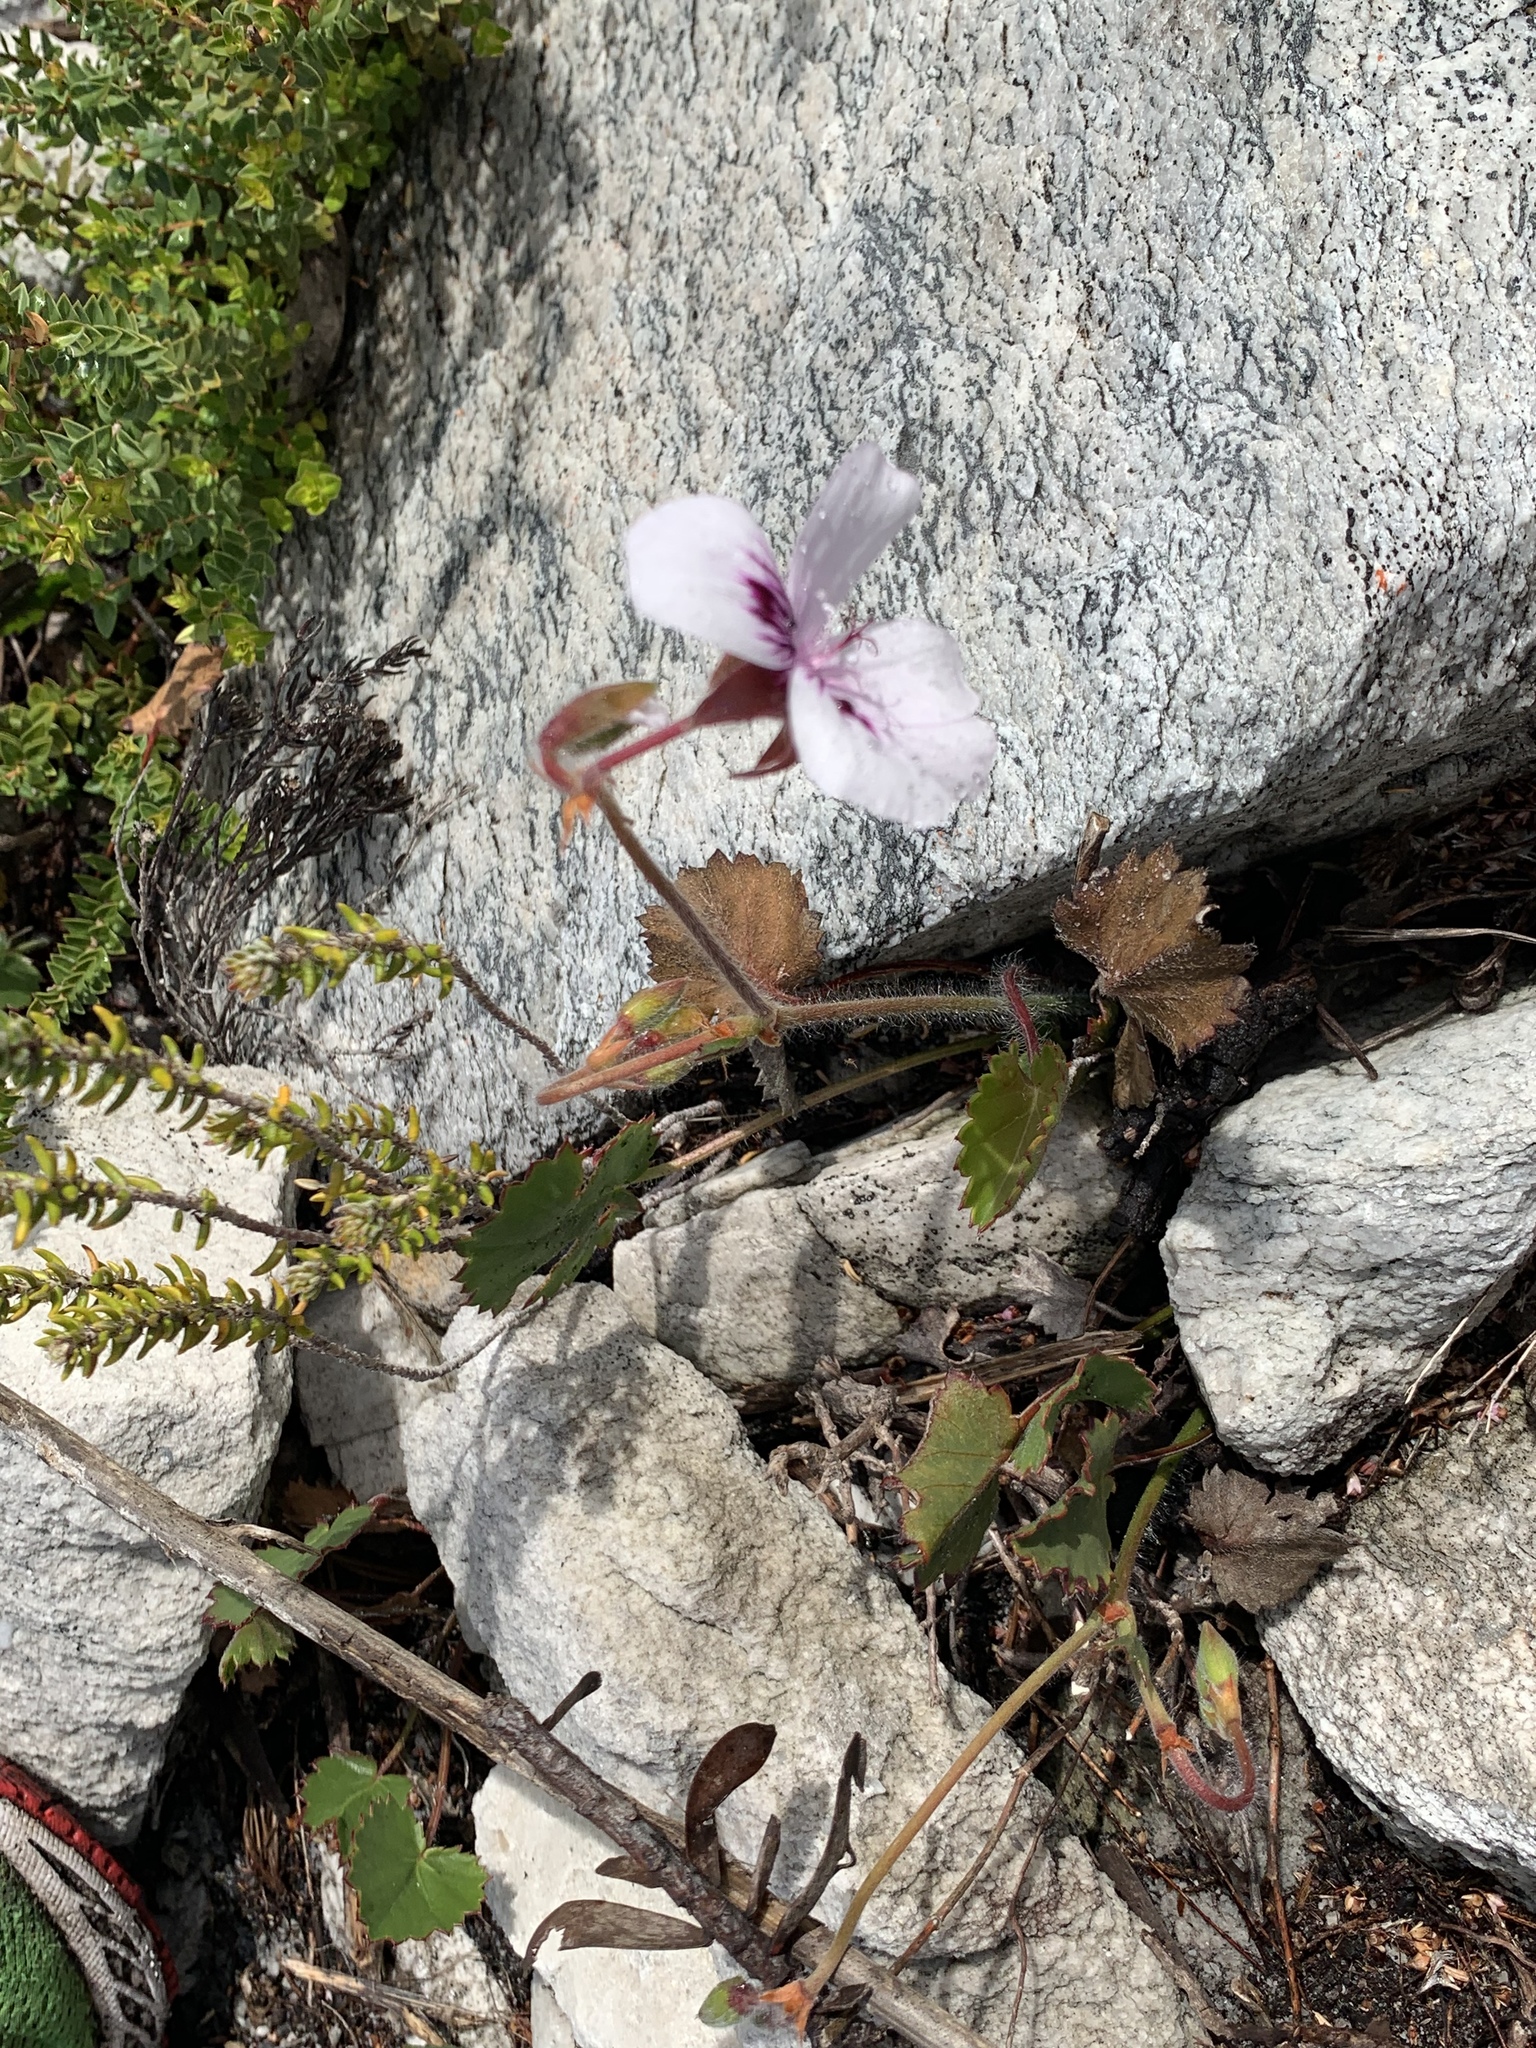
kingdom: Plantae
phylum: Tracheophyta
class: Magnoliopsida
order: Geraniales
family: Geraniaceae
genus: Pelargonium
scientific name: Pelargonium elegans
